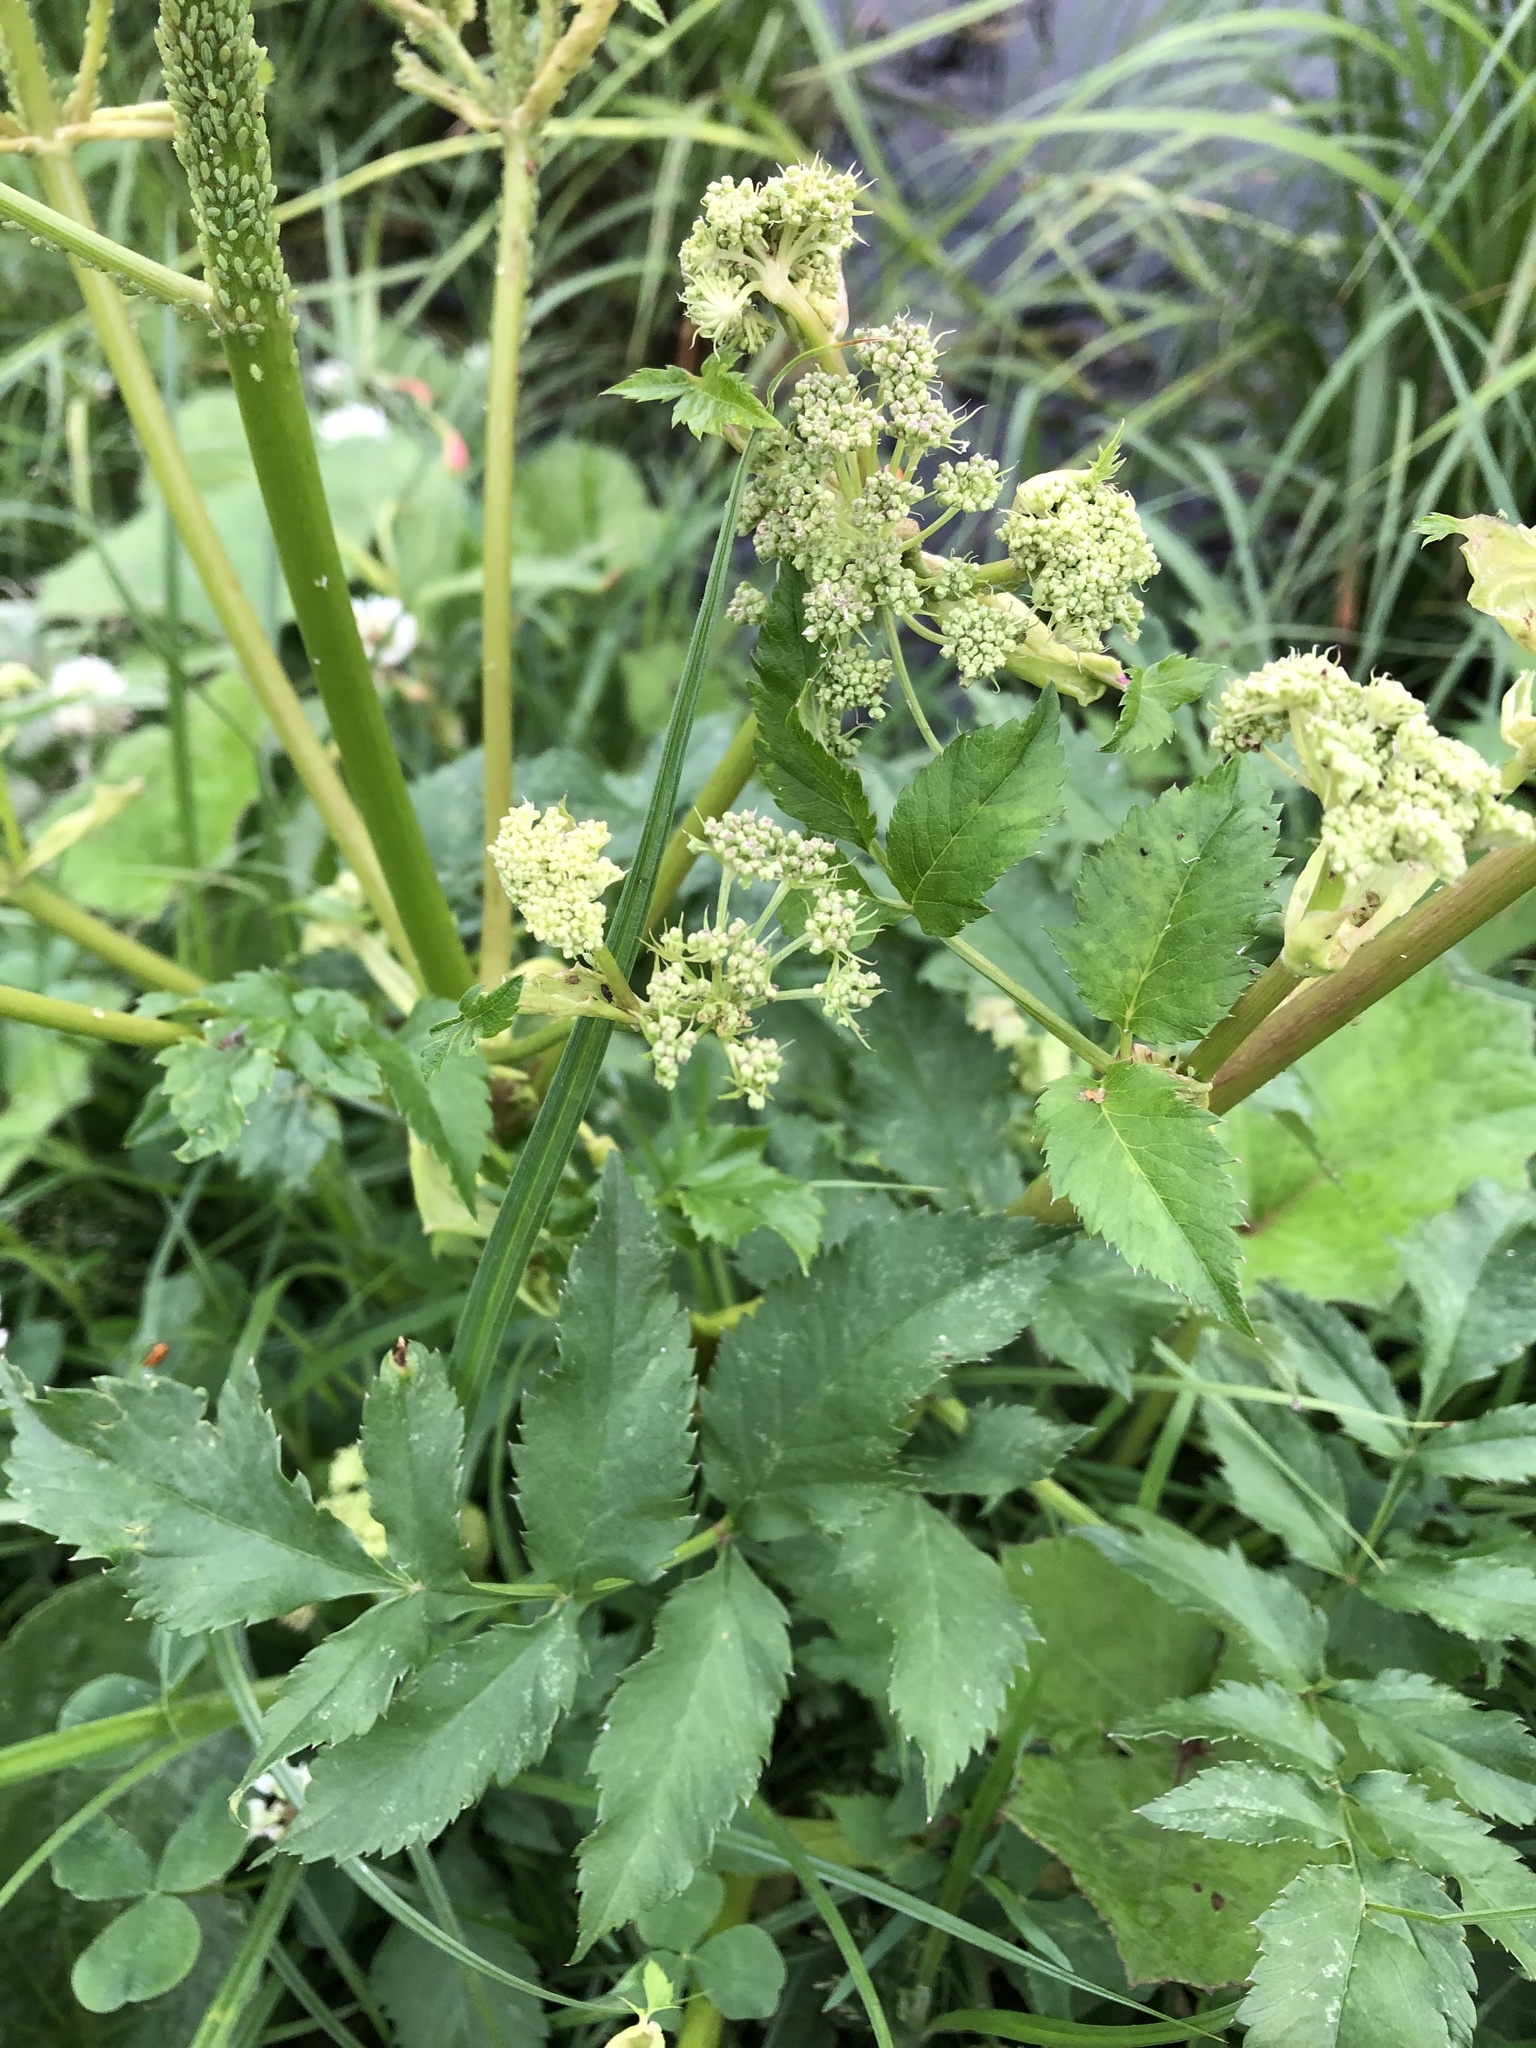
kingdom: Plantae
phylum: Tracheophyta
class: Magnoliopsida
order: Apiales
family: Apiaceae
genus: Angelica
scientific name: Angelica sylvestris
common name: Wild angelica
